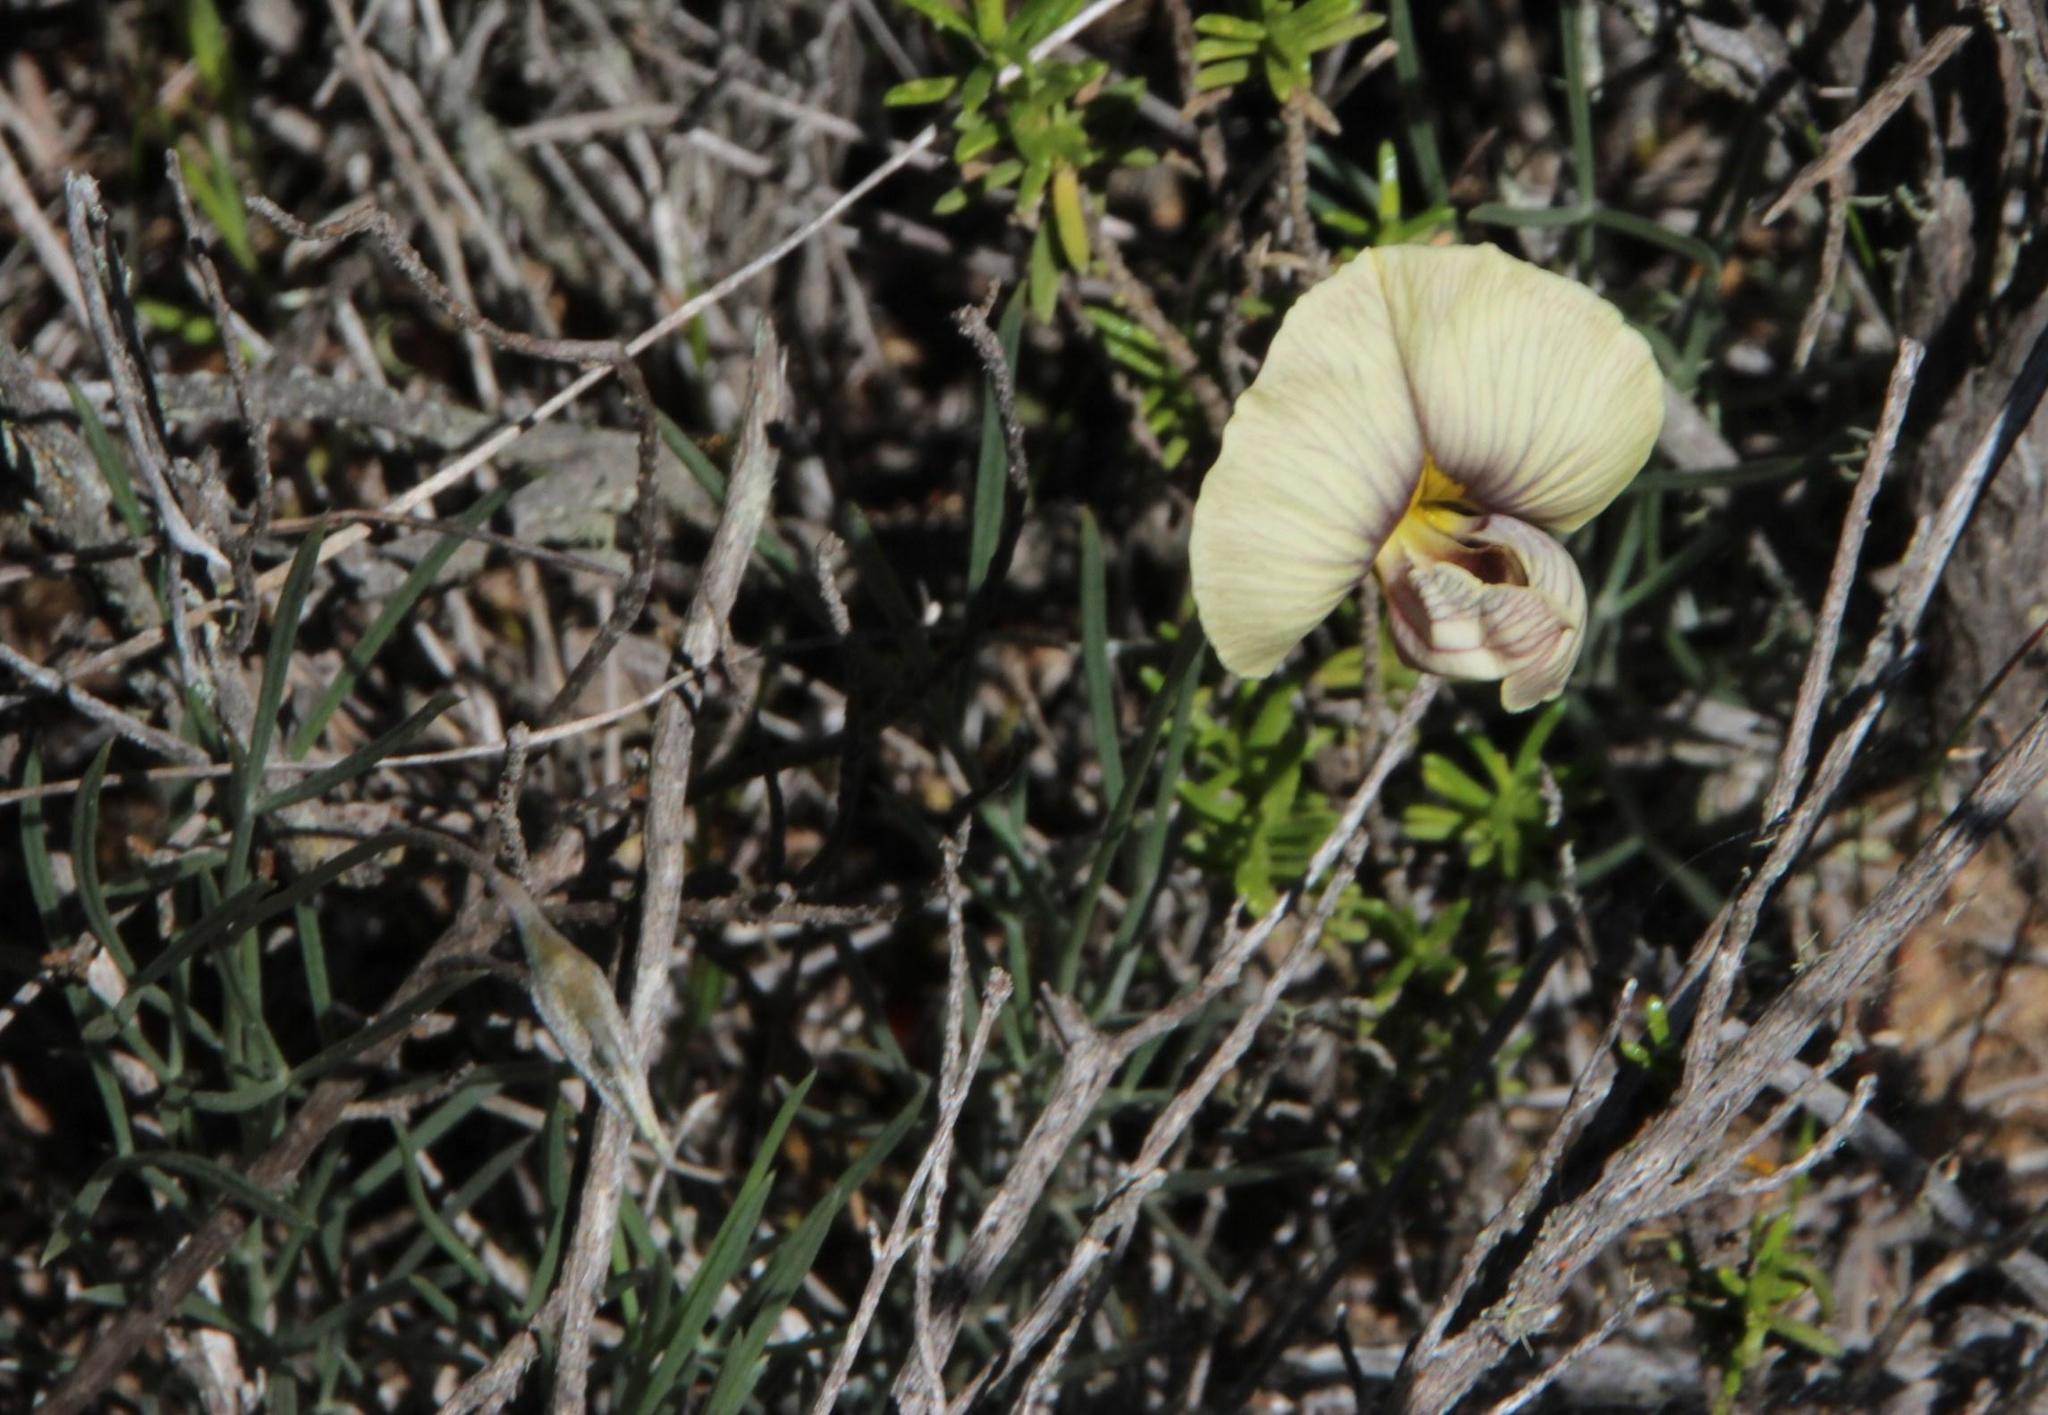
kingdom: Plantae
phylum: Tracheophyta
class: Magnoliopsida
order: Fabales
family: Fabaceae
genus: Lotononis
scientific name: Lotononis gracilifolia
